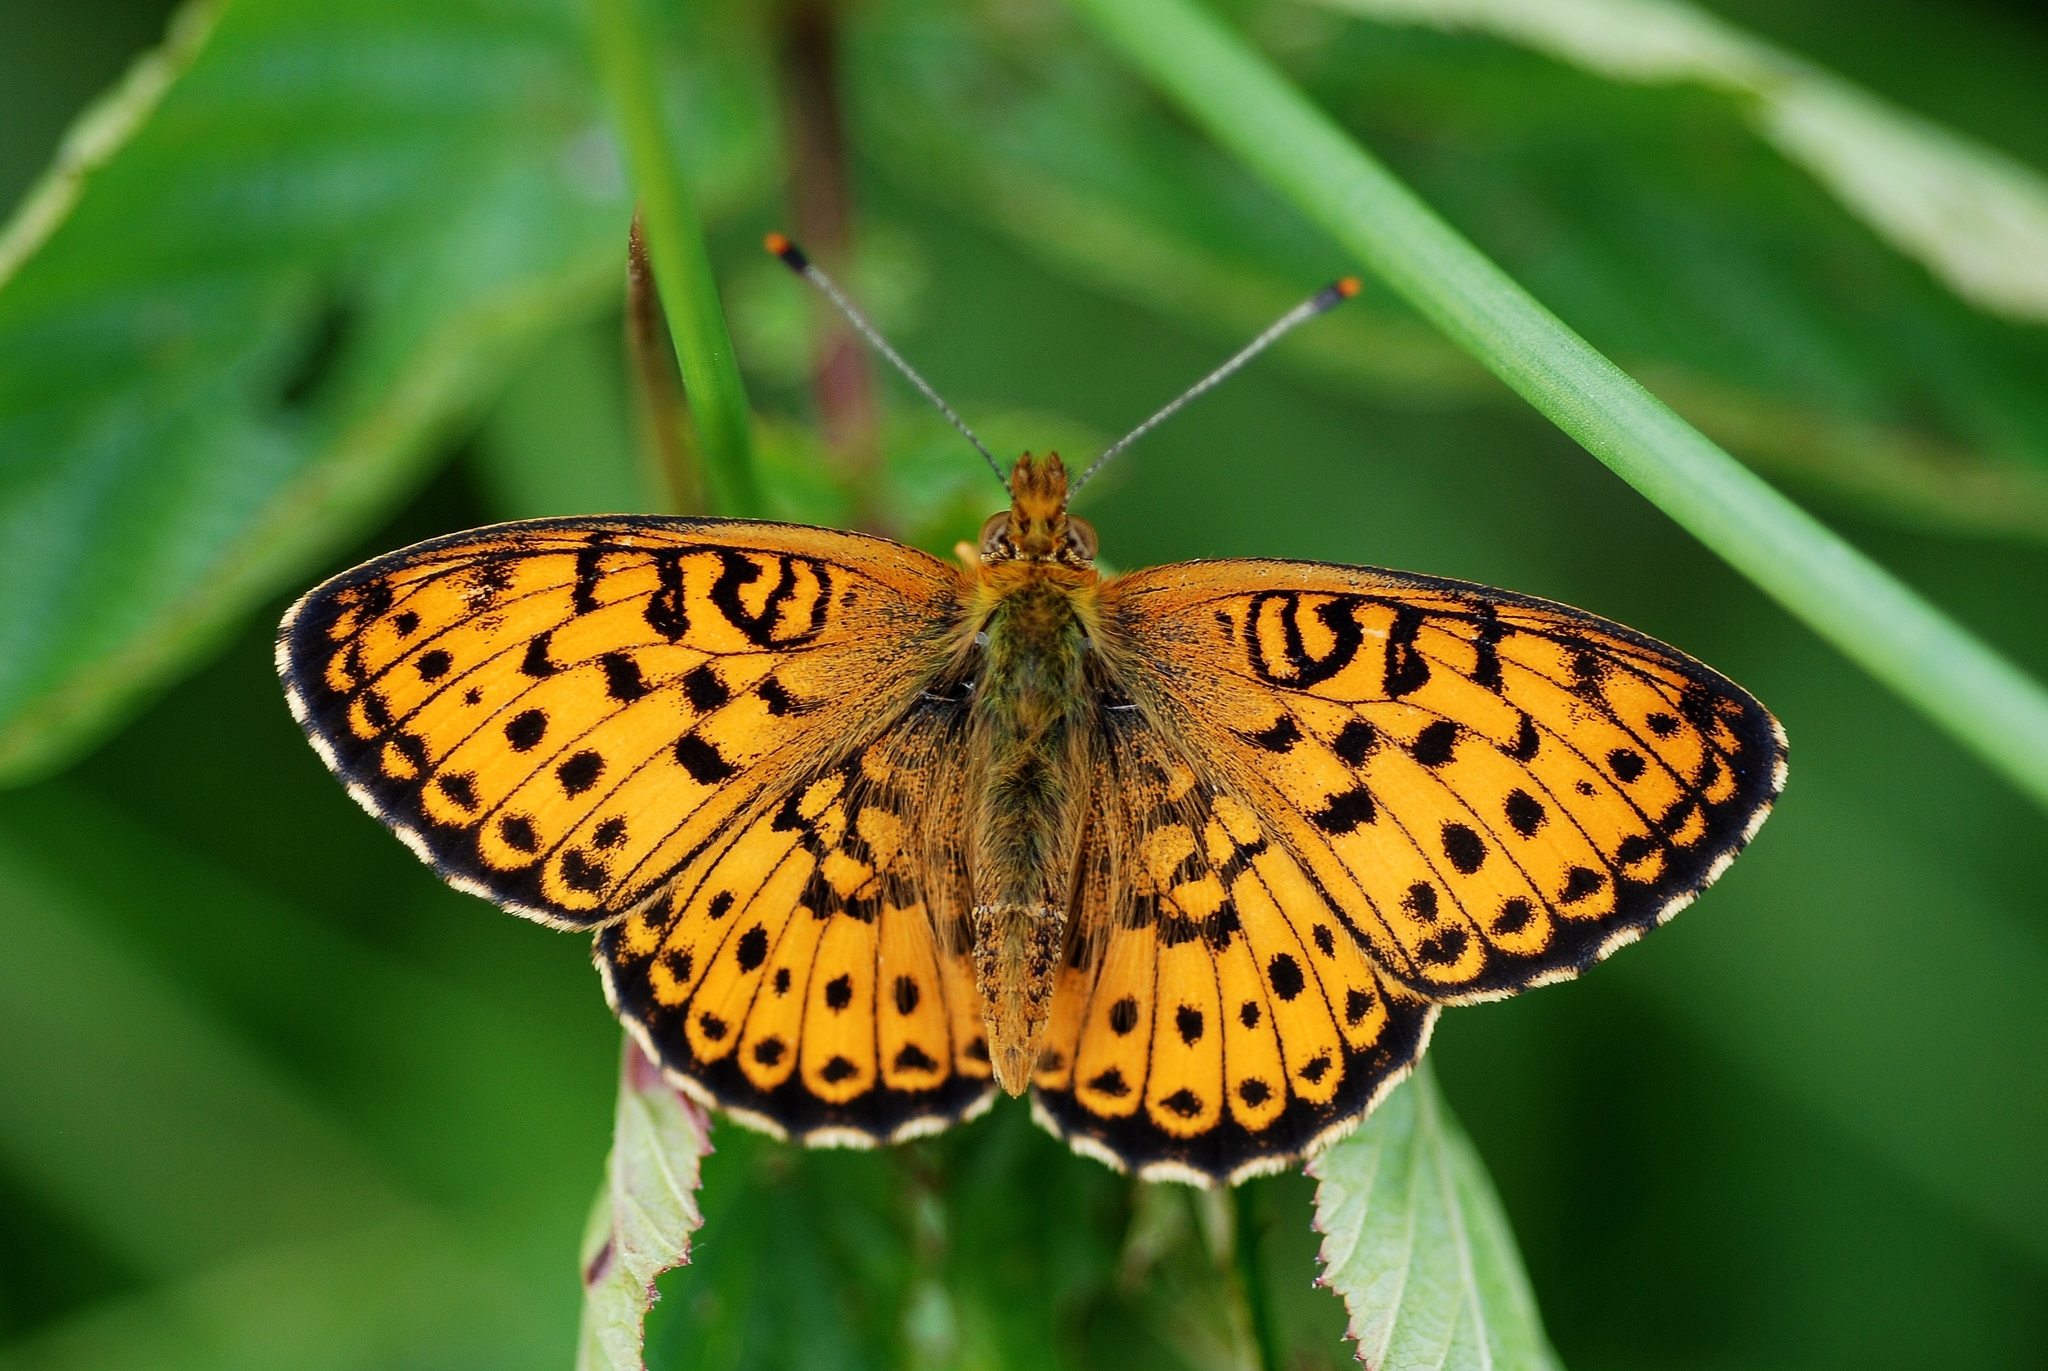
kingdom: Animalia
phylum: Arthropoda
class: Insecta
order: Lepidoptera
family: Nymphalidae
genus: Brenthis
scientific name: Brenthis ino
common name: Lesser marbled fritillary
